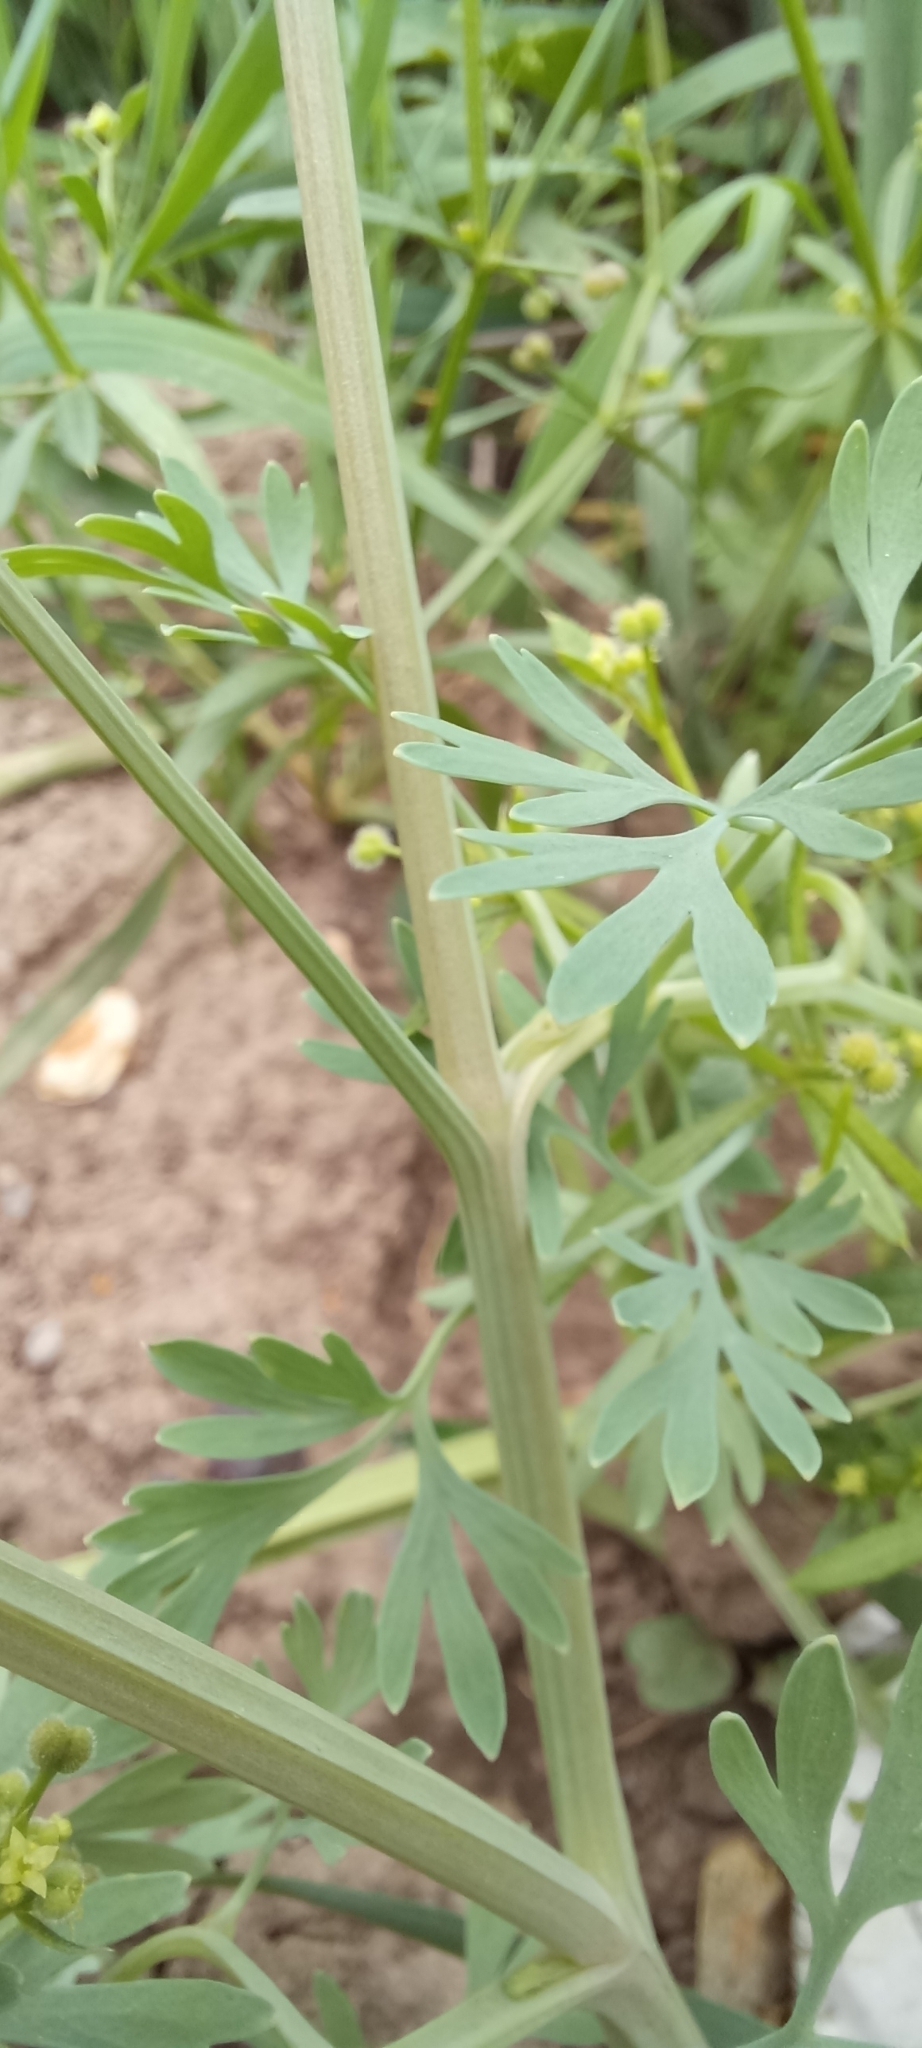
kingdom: Plantae
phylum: Tracheophyta
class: Magnoliopsida
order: Ranunculales
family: Papaveraceae
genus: Fumaria
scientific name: Fumaria schleicheri
